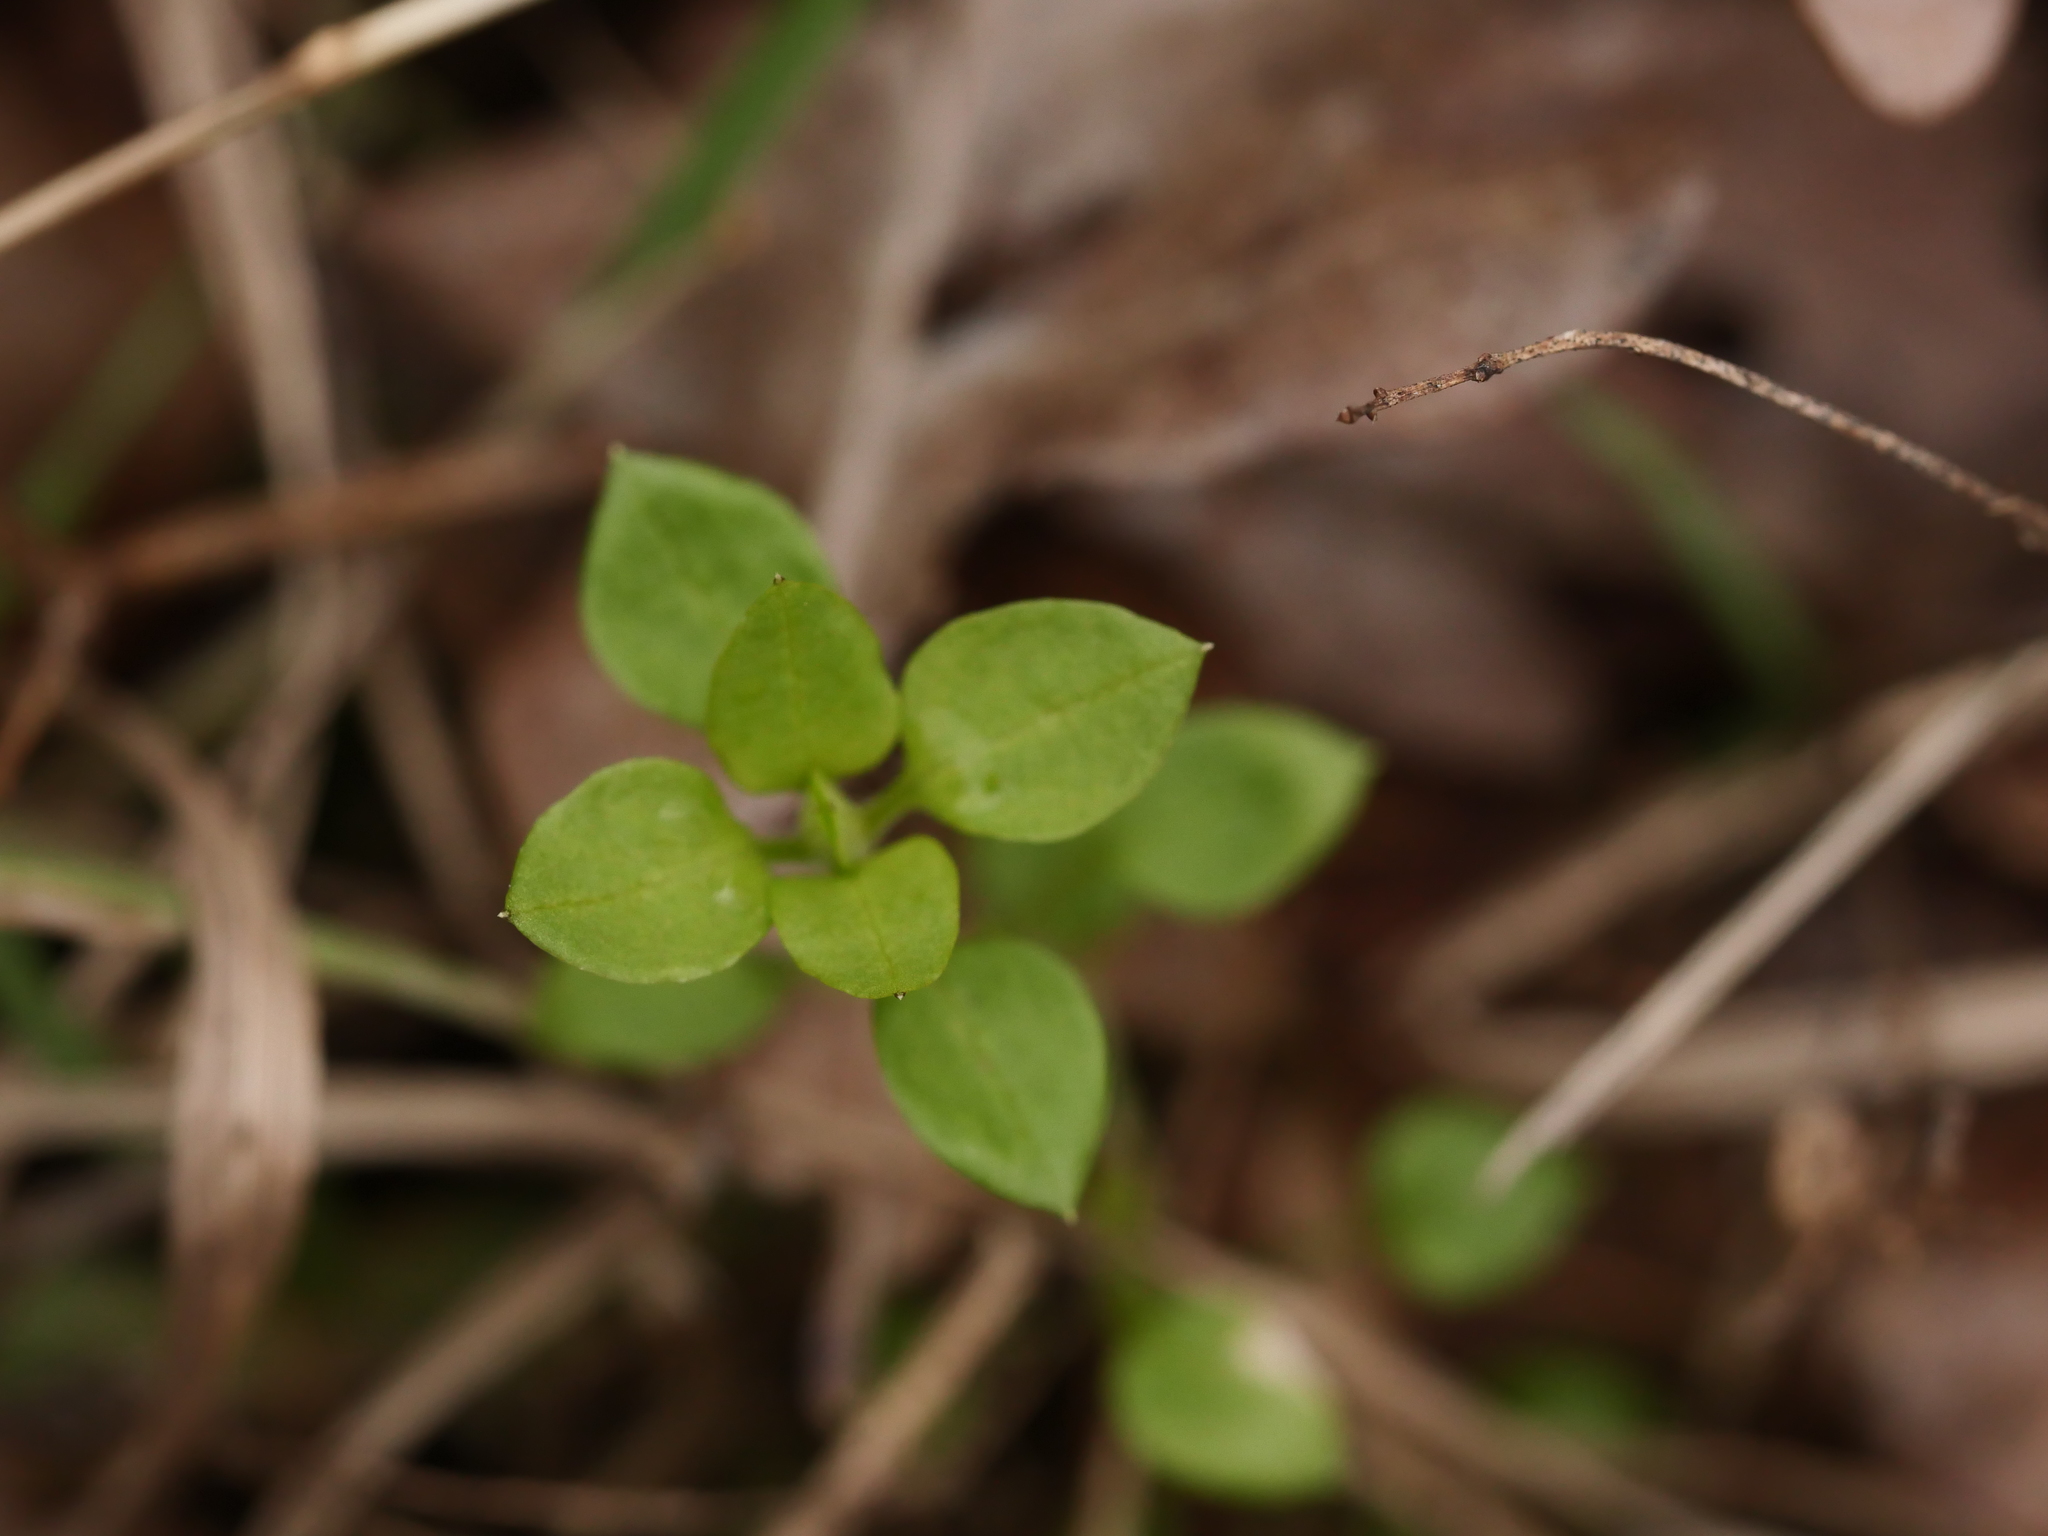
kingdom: Plantae
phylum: Tracheophyta
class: Magnoliopsida
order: Caryophyllales
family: Caryophyllaceae
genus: Stellaria
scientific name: Stellaria media
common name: Common chickweed
